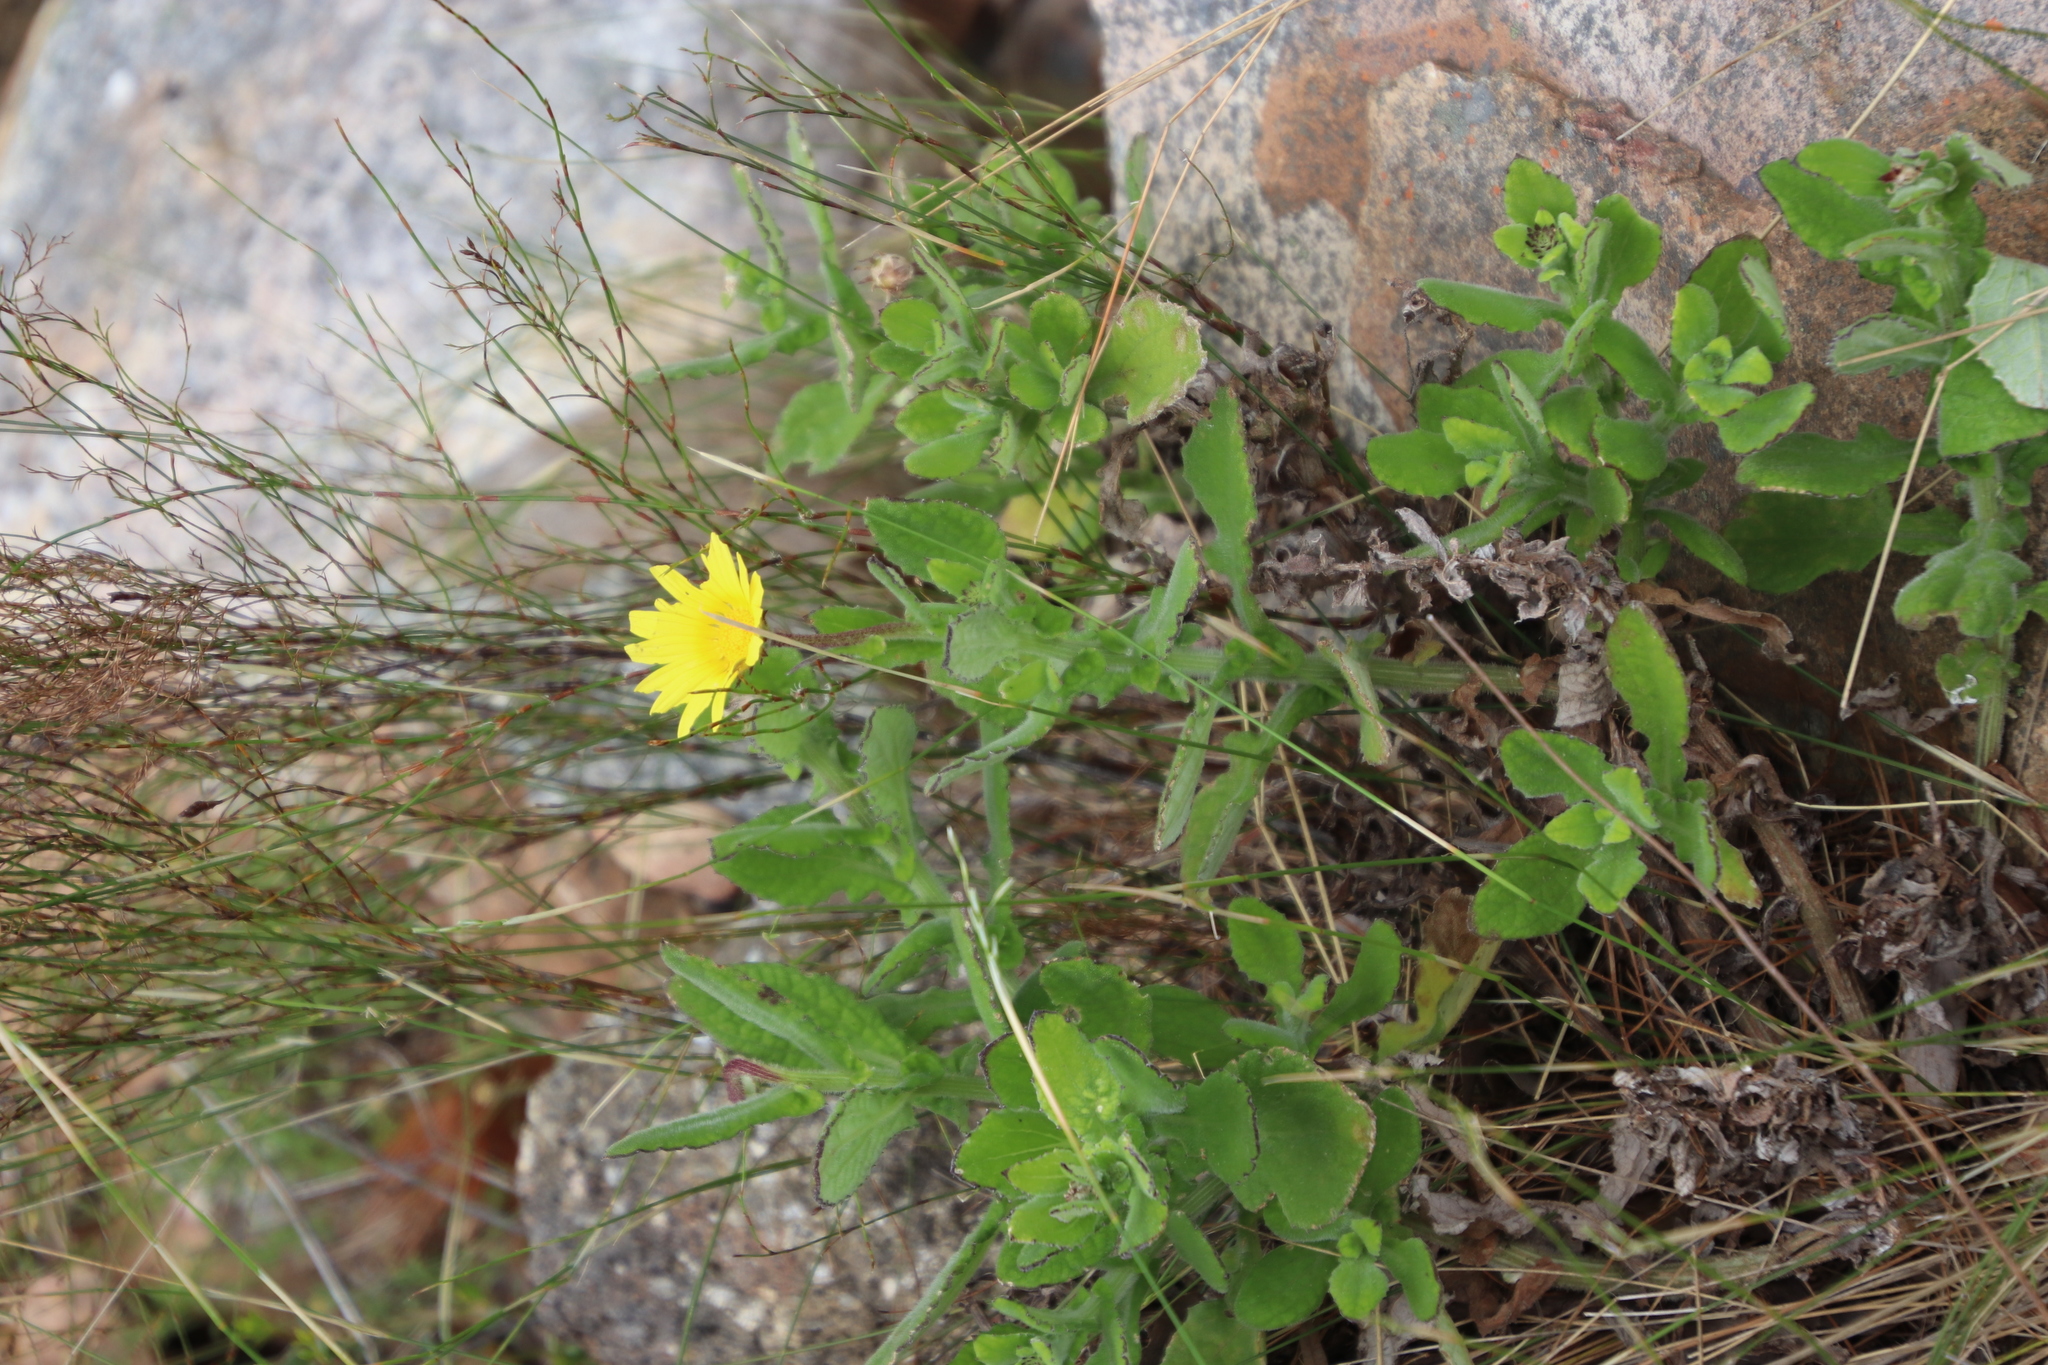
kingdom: Plantae
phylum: Tracheophyta
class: Magnoliopsida
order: Asterales
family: Asteraceae
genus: Arctotis
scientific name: Arctotis scabra
